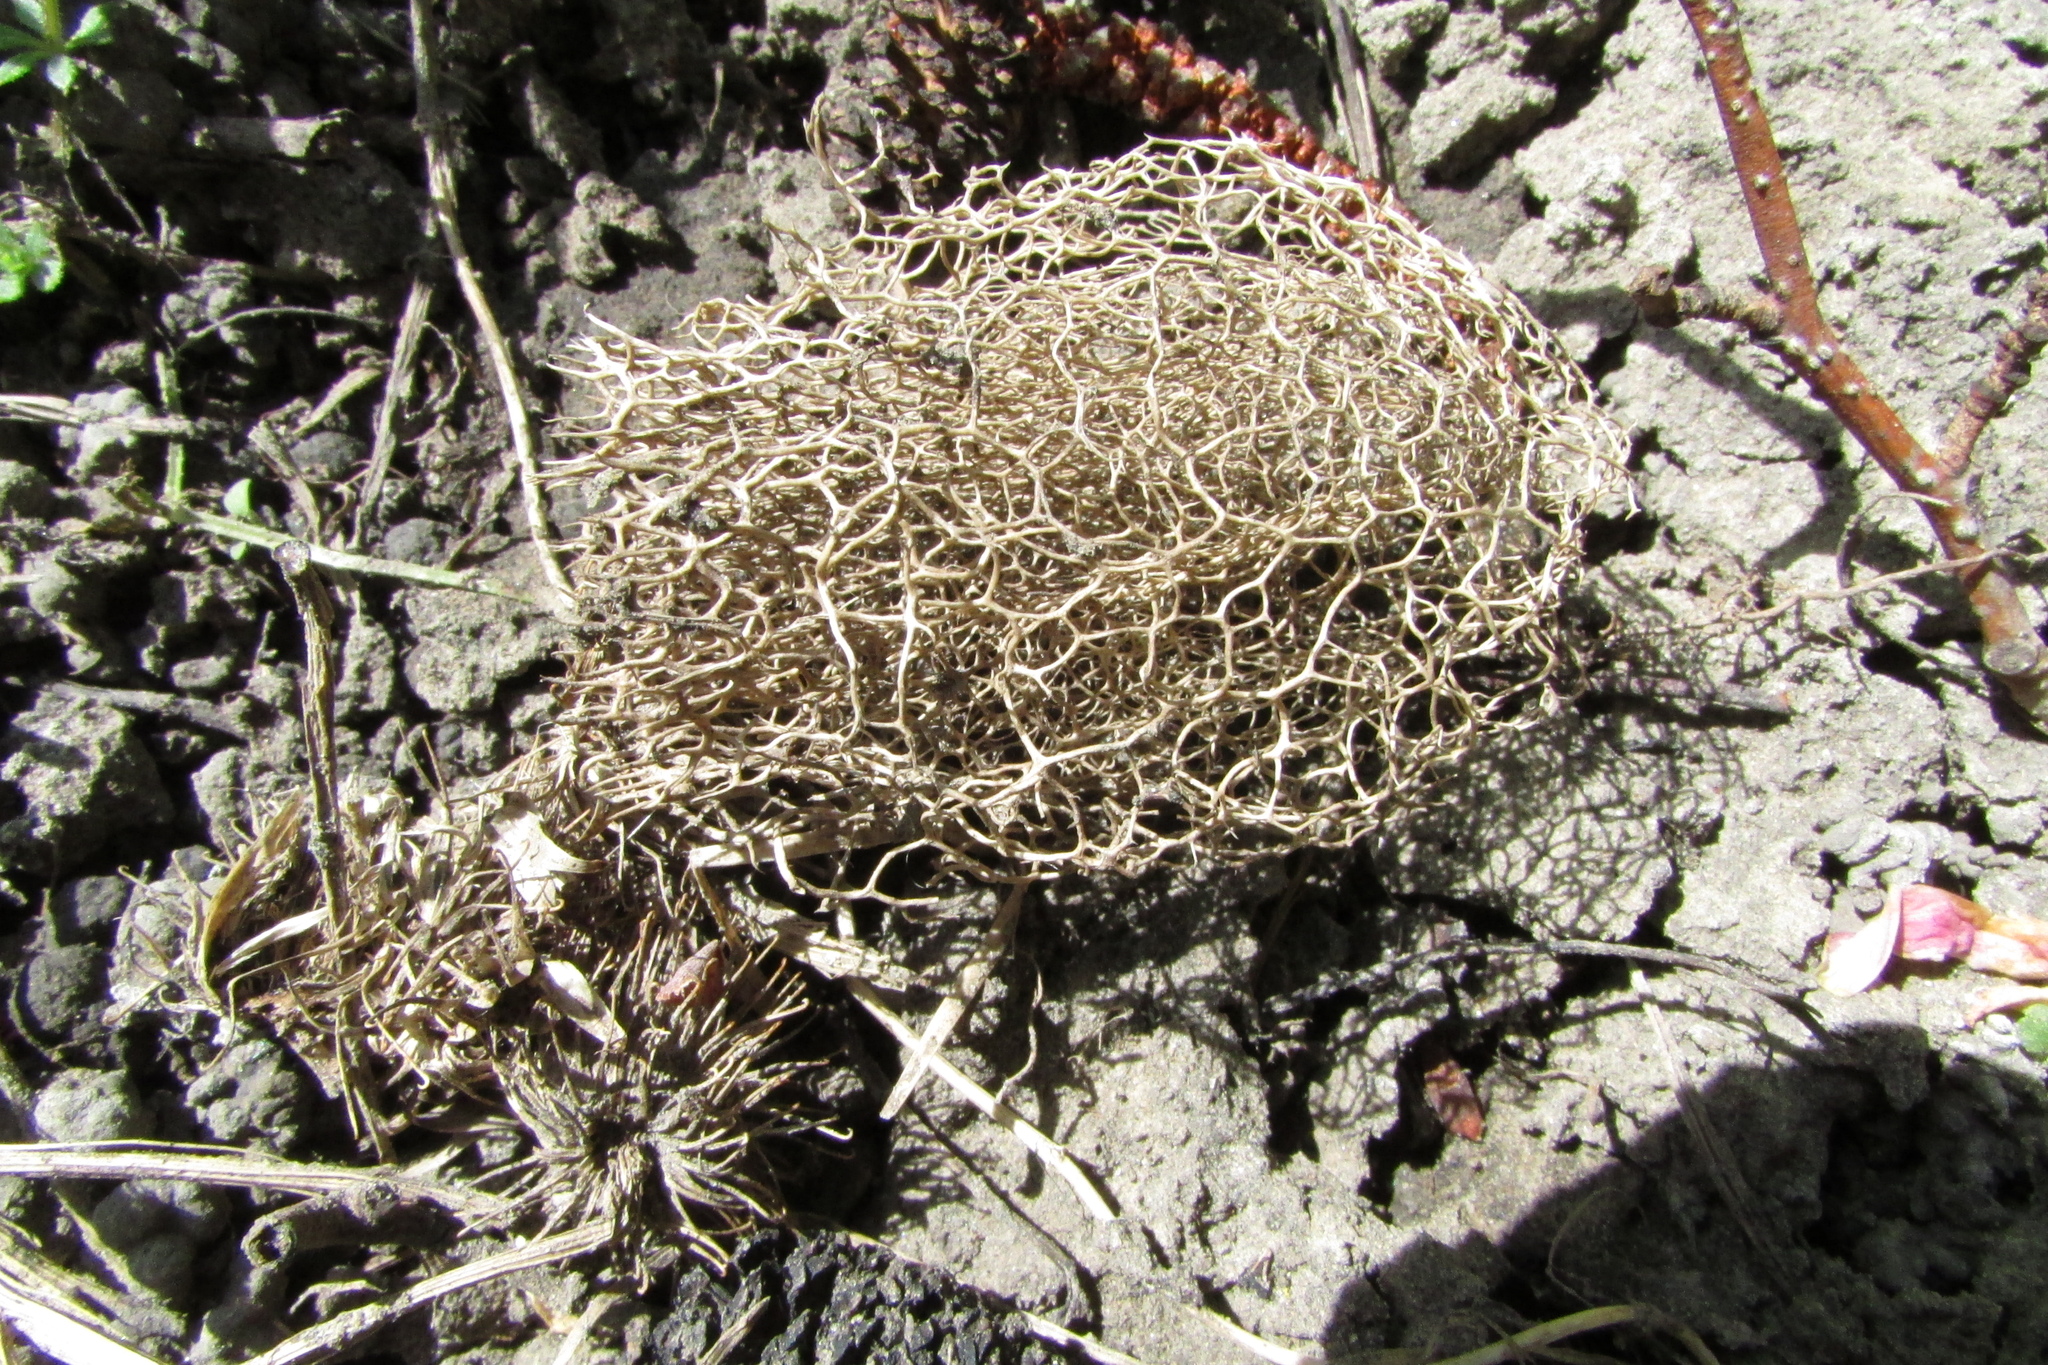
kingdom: Plantae
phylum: Tracheophyta
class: Magnoliopsida
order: Cucurbitales
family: Cucurbitaceae
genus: Echinocystis
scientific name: Echinocystis lobata
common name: Wild cucumber
